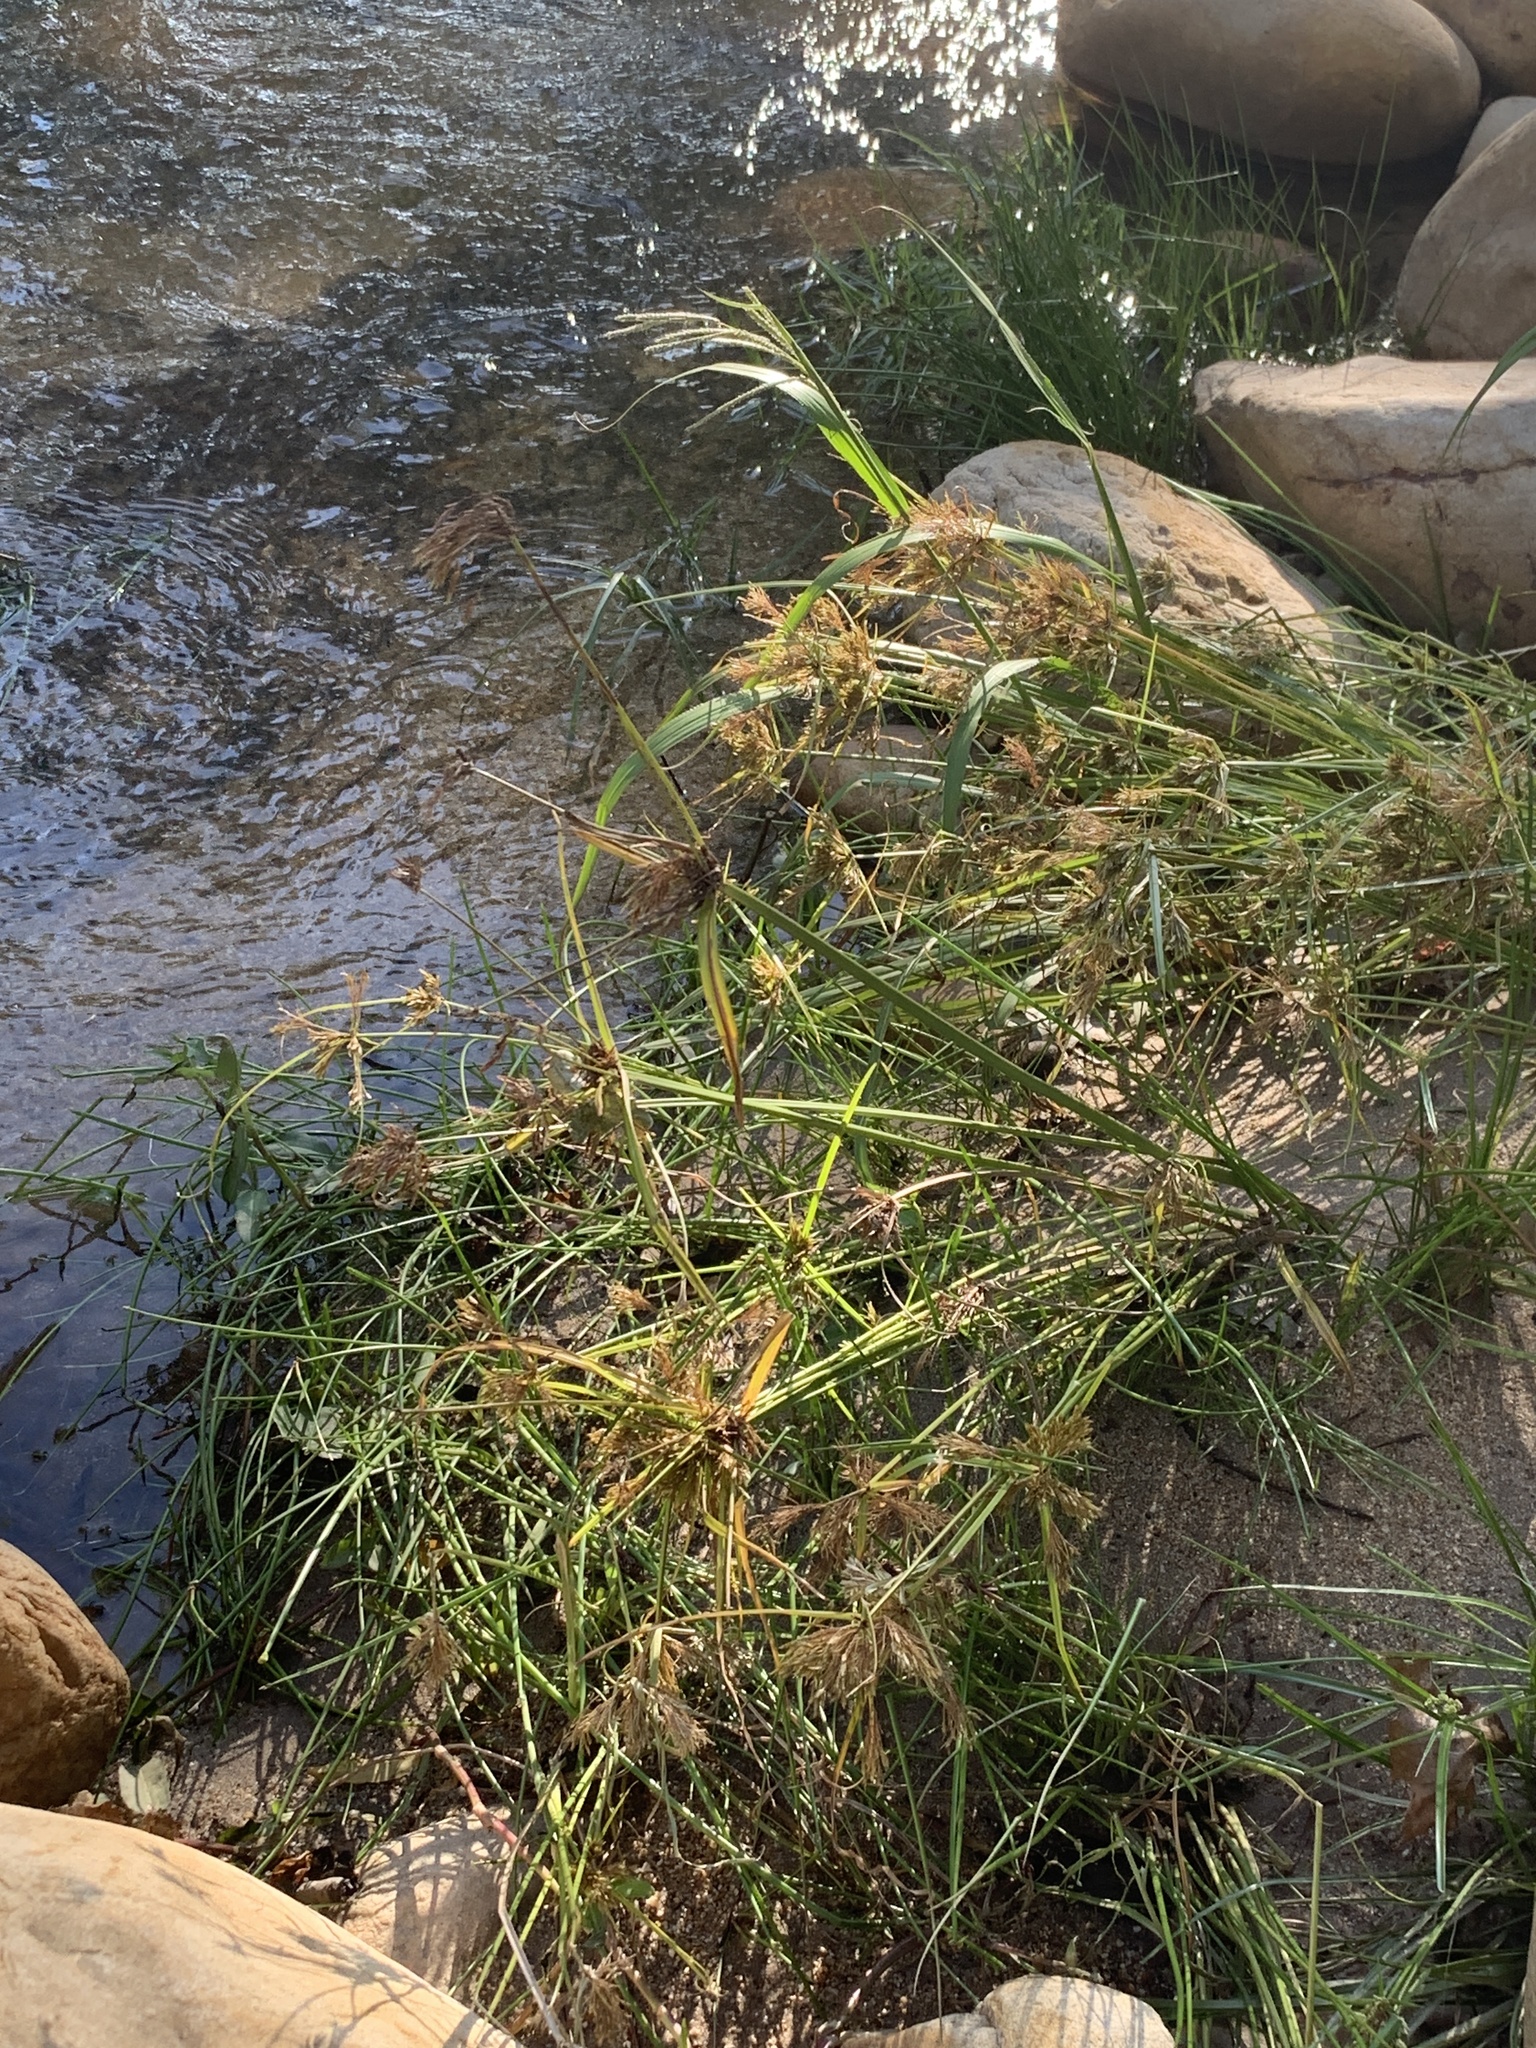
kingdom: Plantae
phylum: Tracheophyta
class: Liliopsida
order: Poales
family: Cyperaceae
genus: Cyperus
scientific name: Cyperus polystachyos
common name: Bunchy flat sedge
